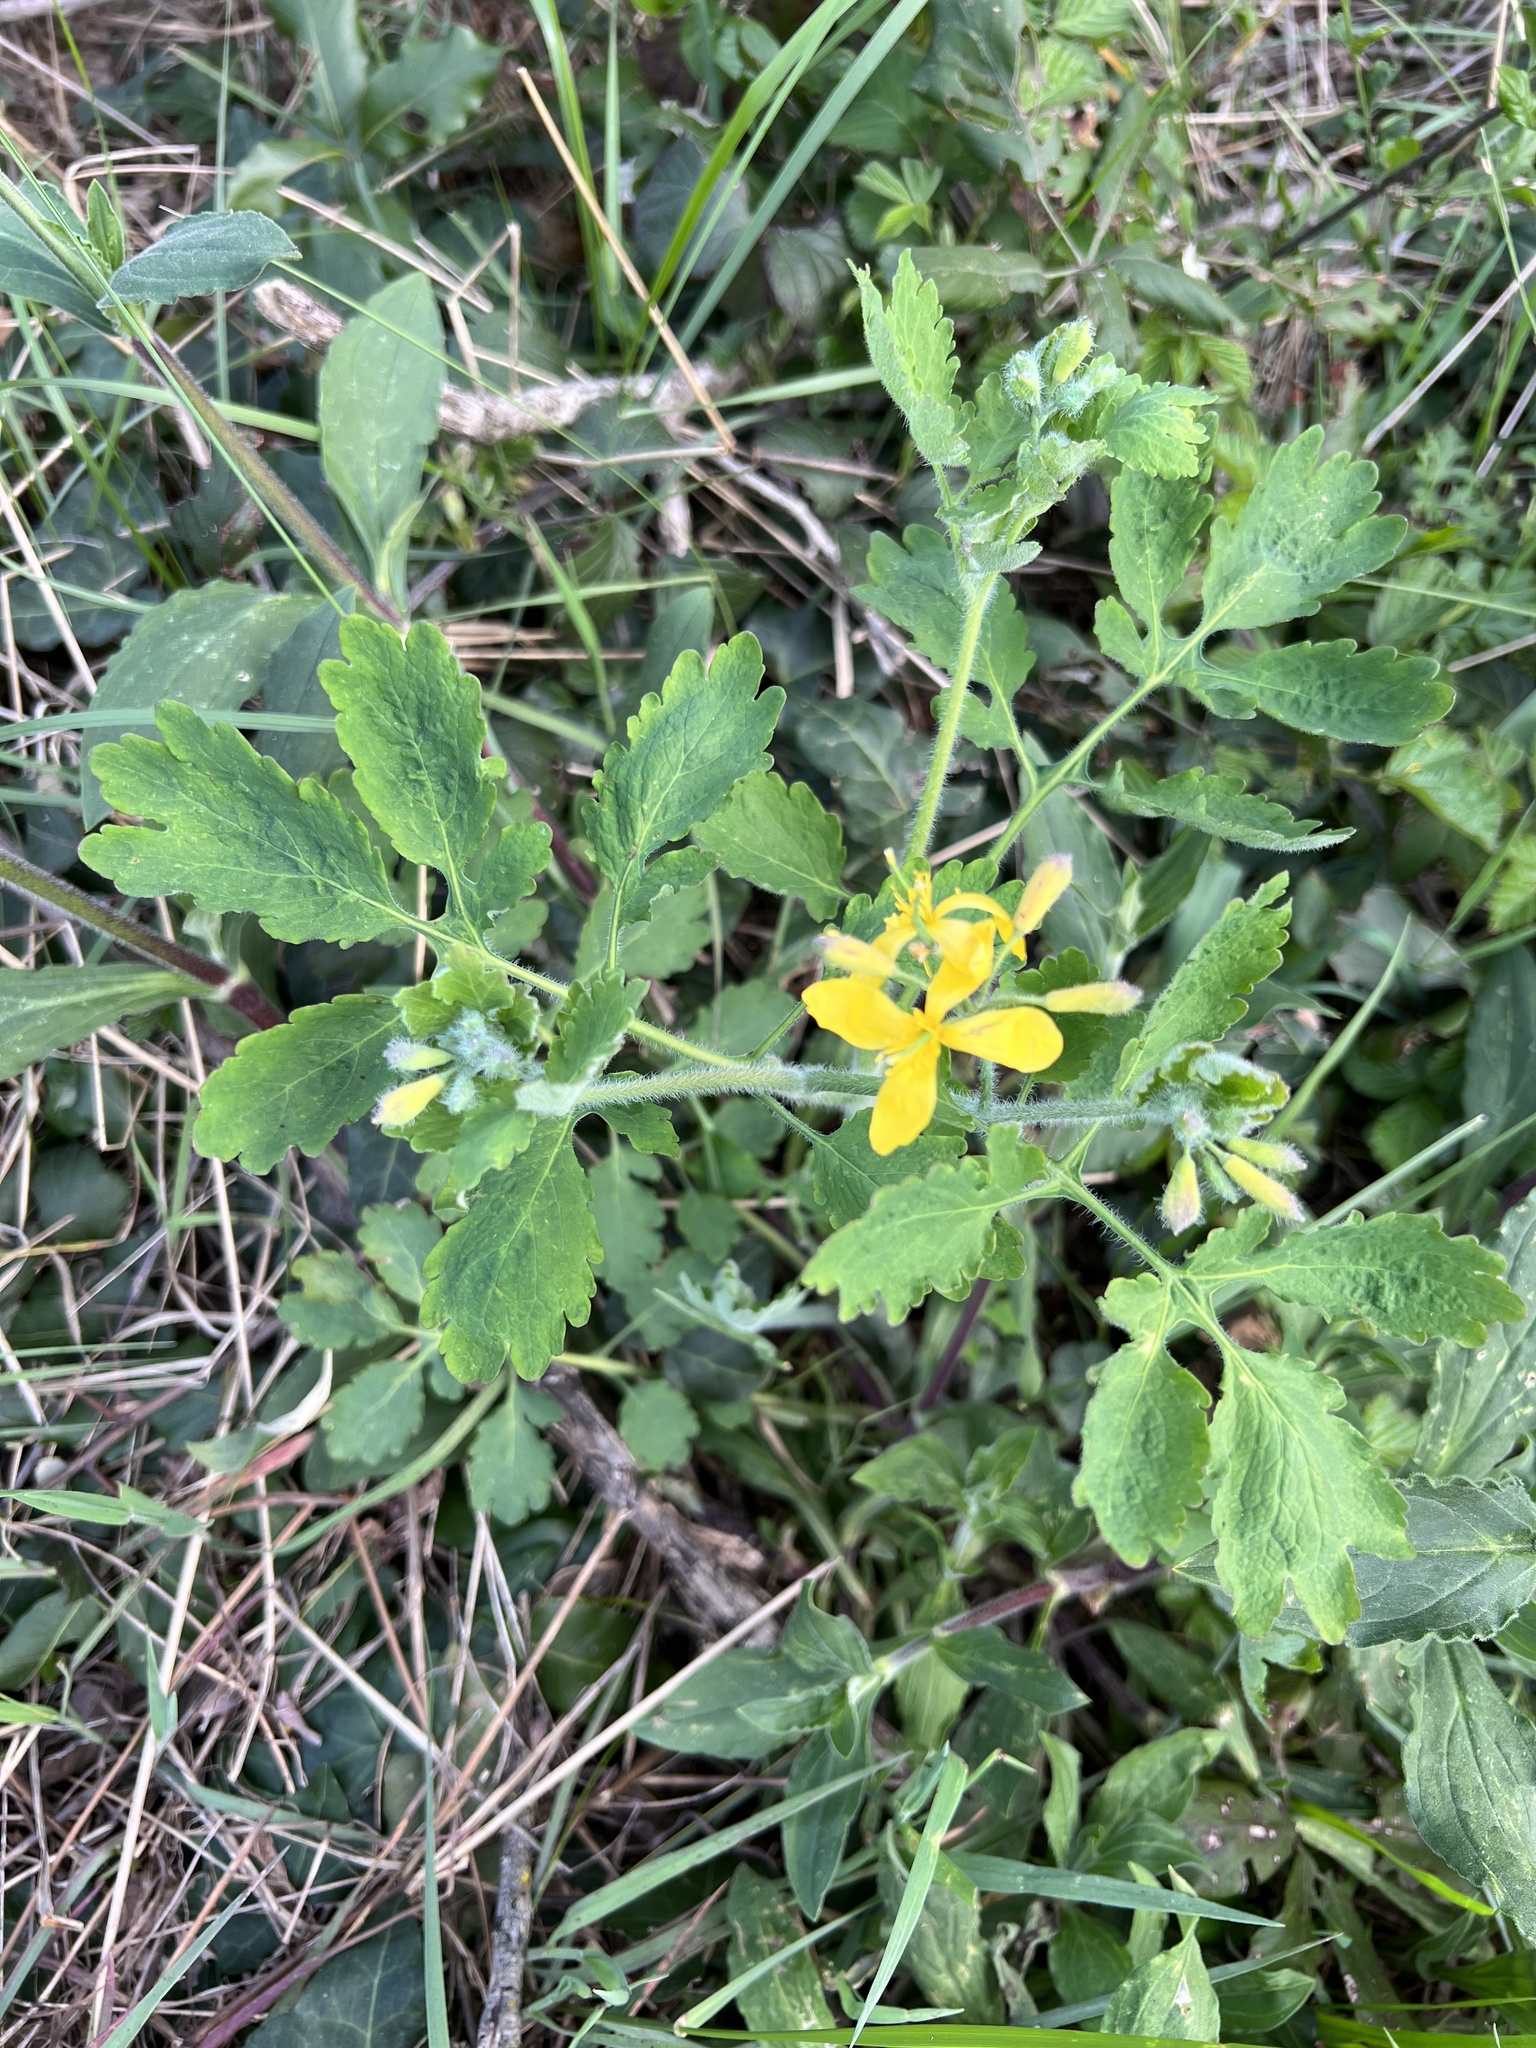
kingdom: Plantae
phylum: Tracheophyta
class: Magnoliopsida
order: Ranunculales
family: Papaveraceae
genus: Chelidonium
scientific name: Chelidonium majus
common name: Greater celandine
